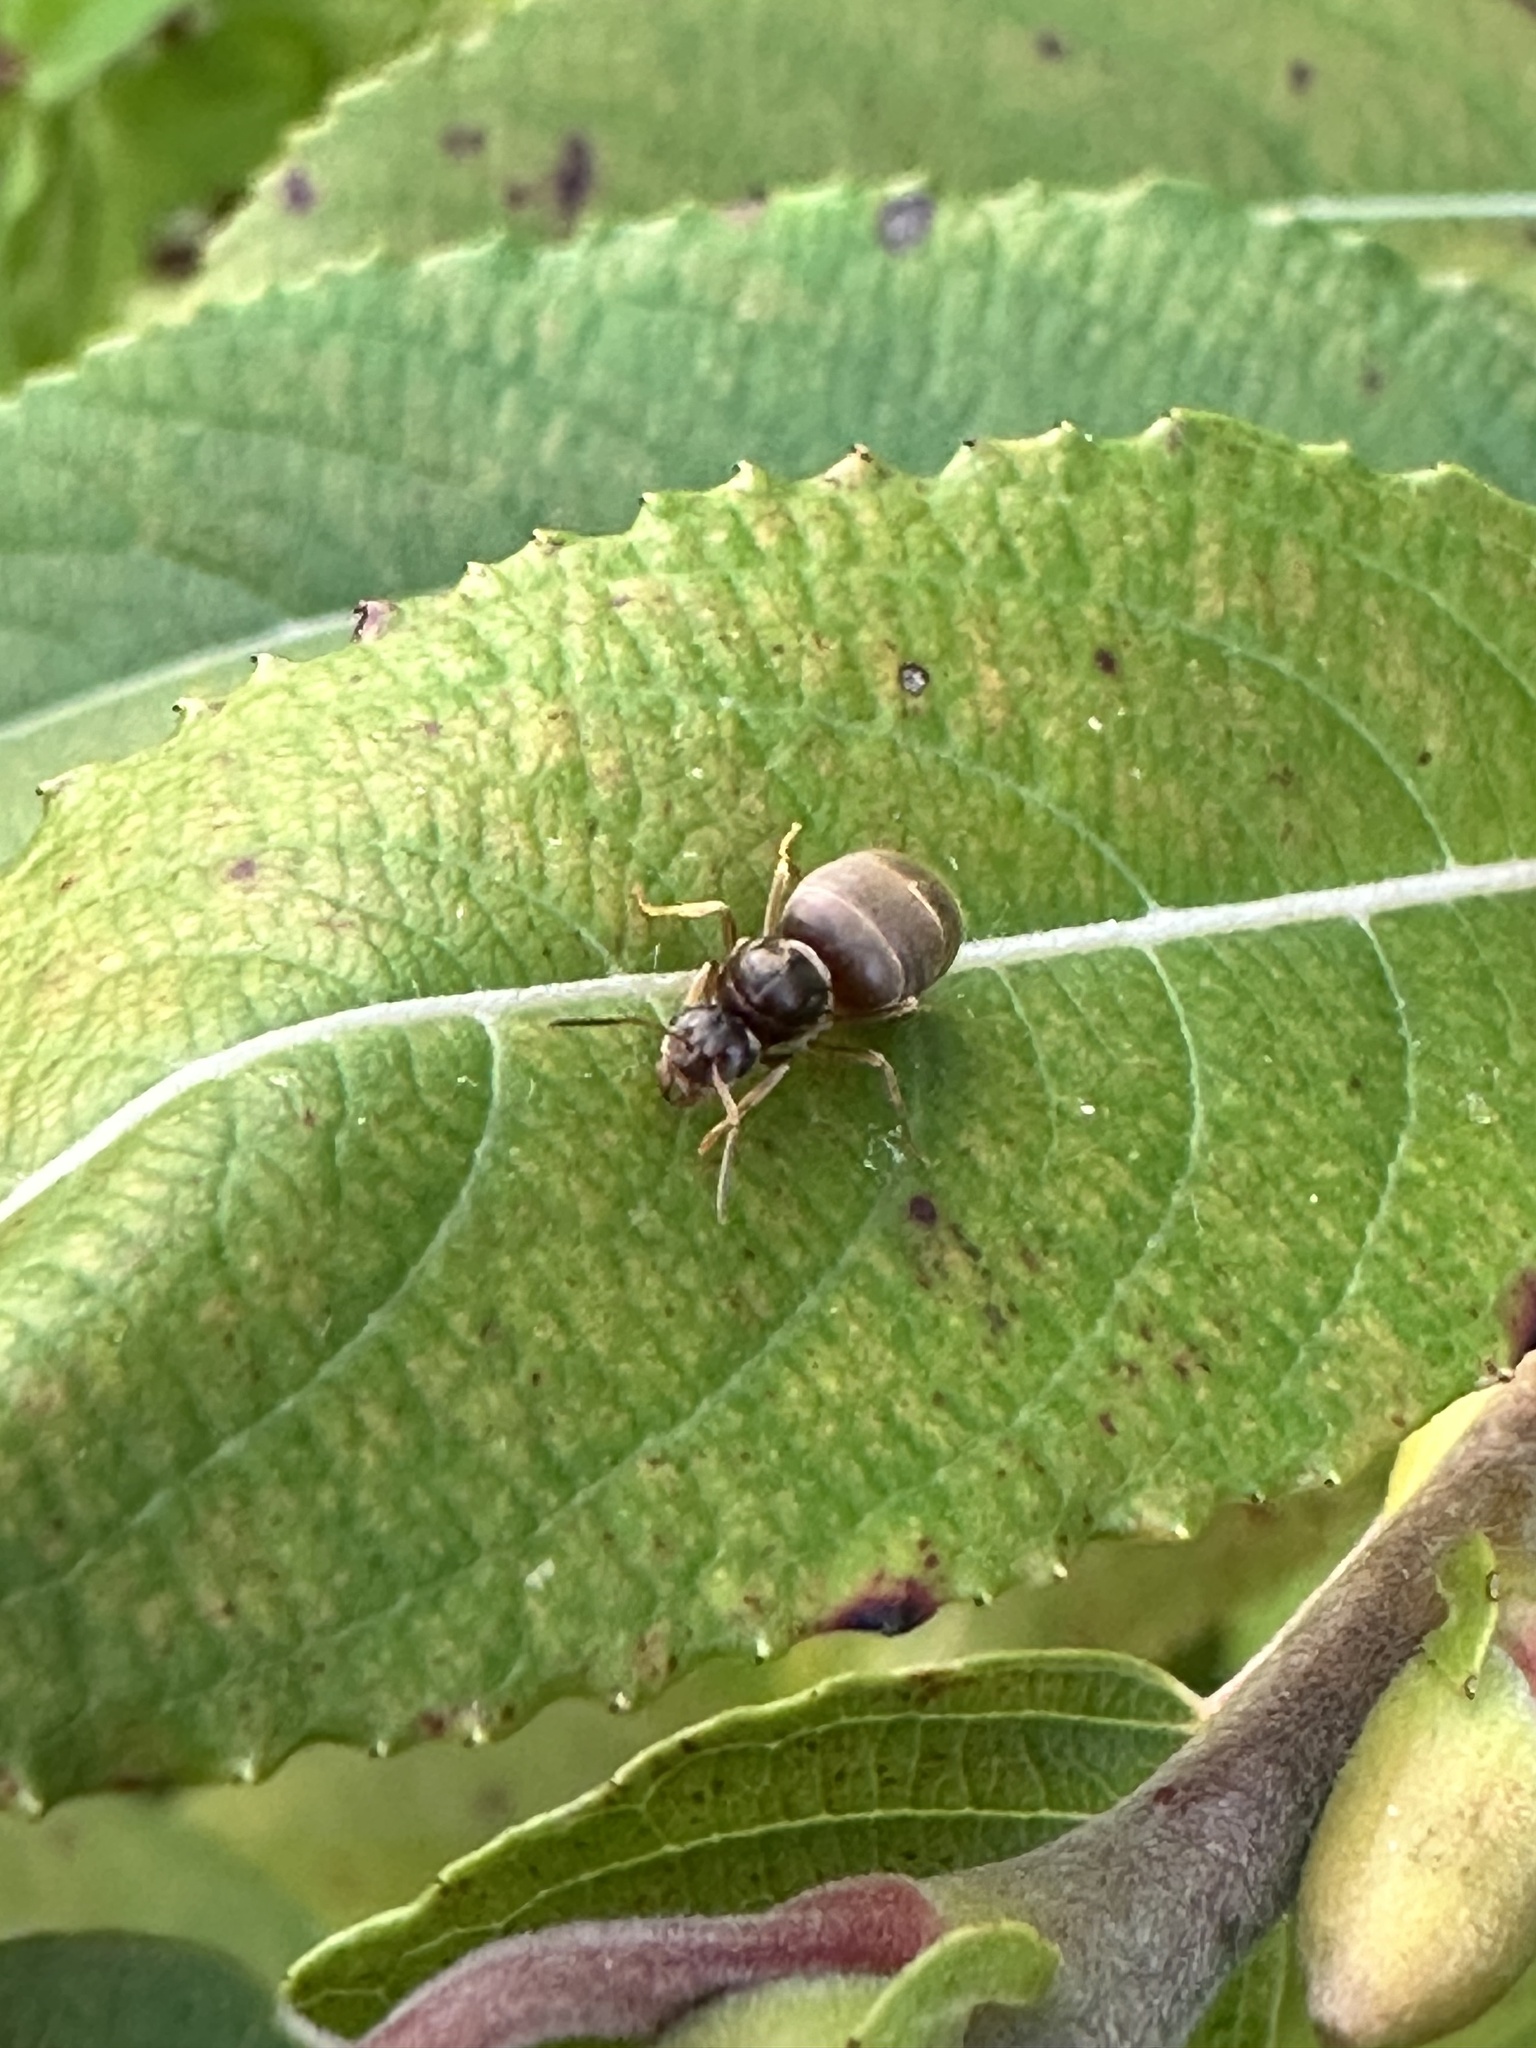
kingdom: Animalia
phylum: Arthropoda
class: Insecta
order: Hymenoptera
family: Formicidae
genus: Lasius
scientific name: Lasius neoniger
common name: Turfgrass ant
